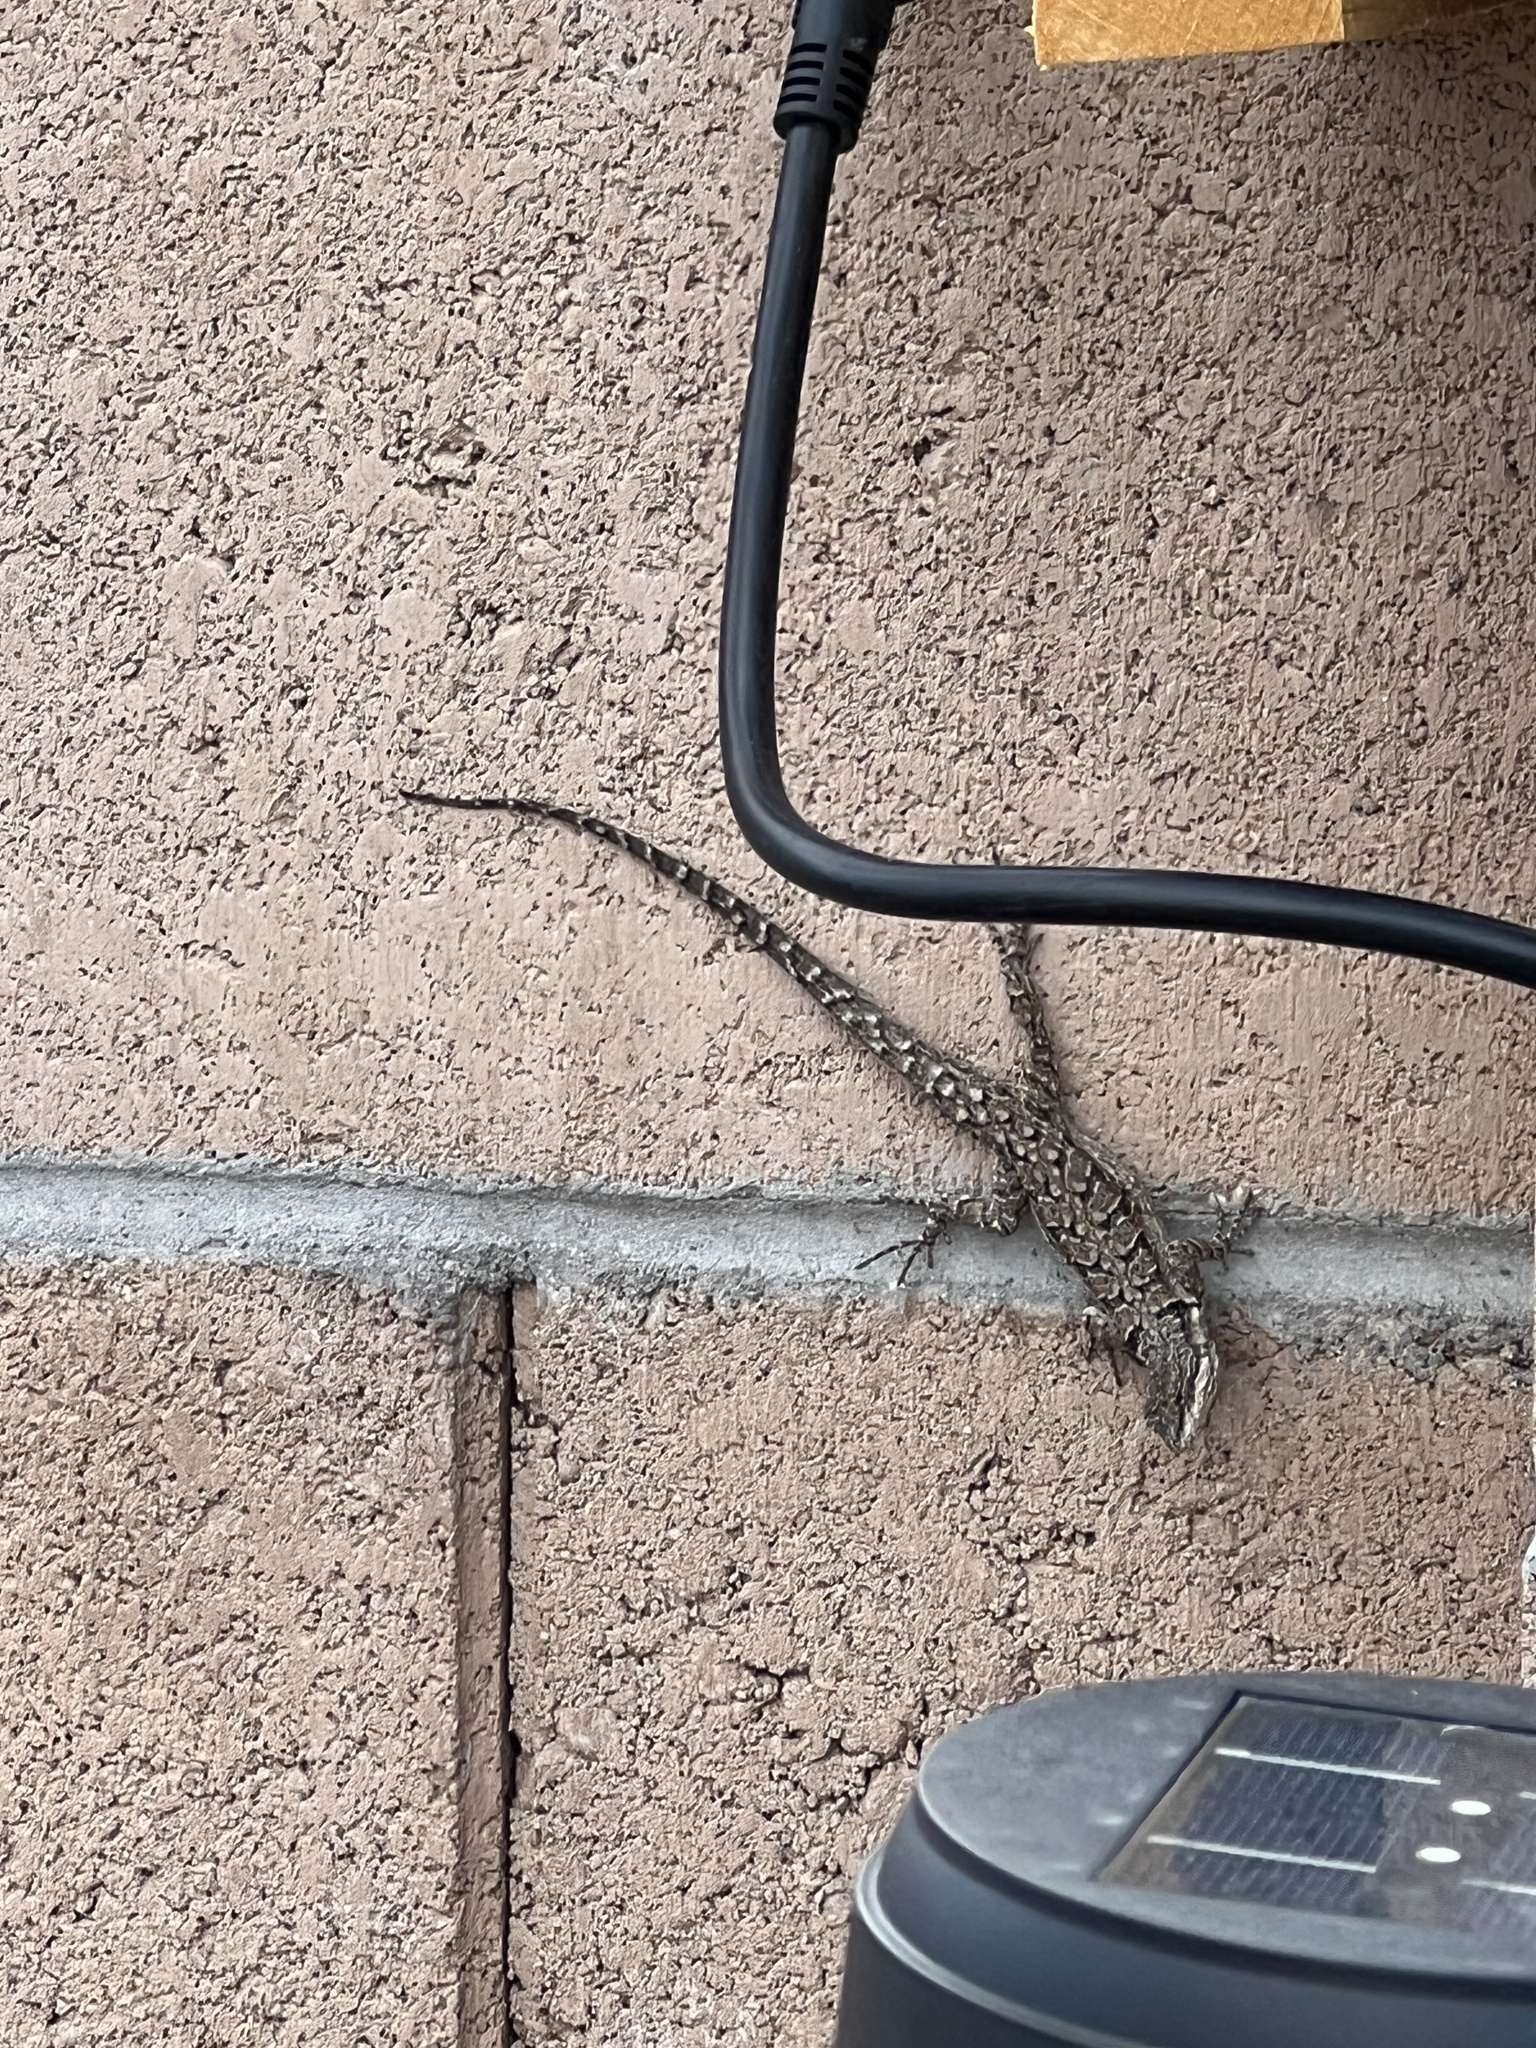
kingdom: Animalia
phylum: Chordata
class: Squamata
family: Phrynosomatidae
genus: Urosaurus
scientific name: Urosaurus ornatus
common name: Ornate tree lizard
